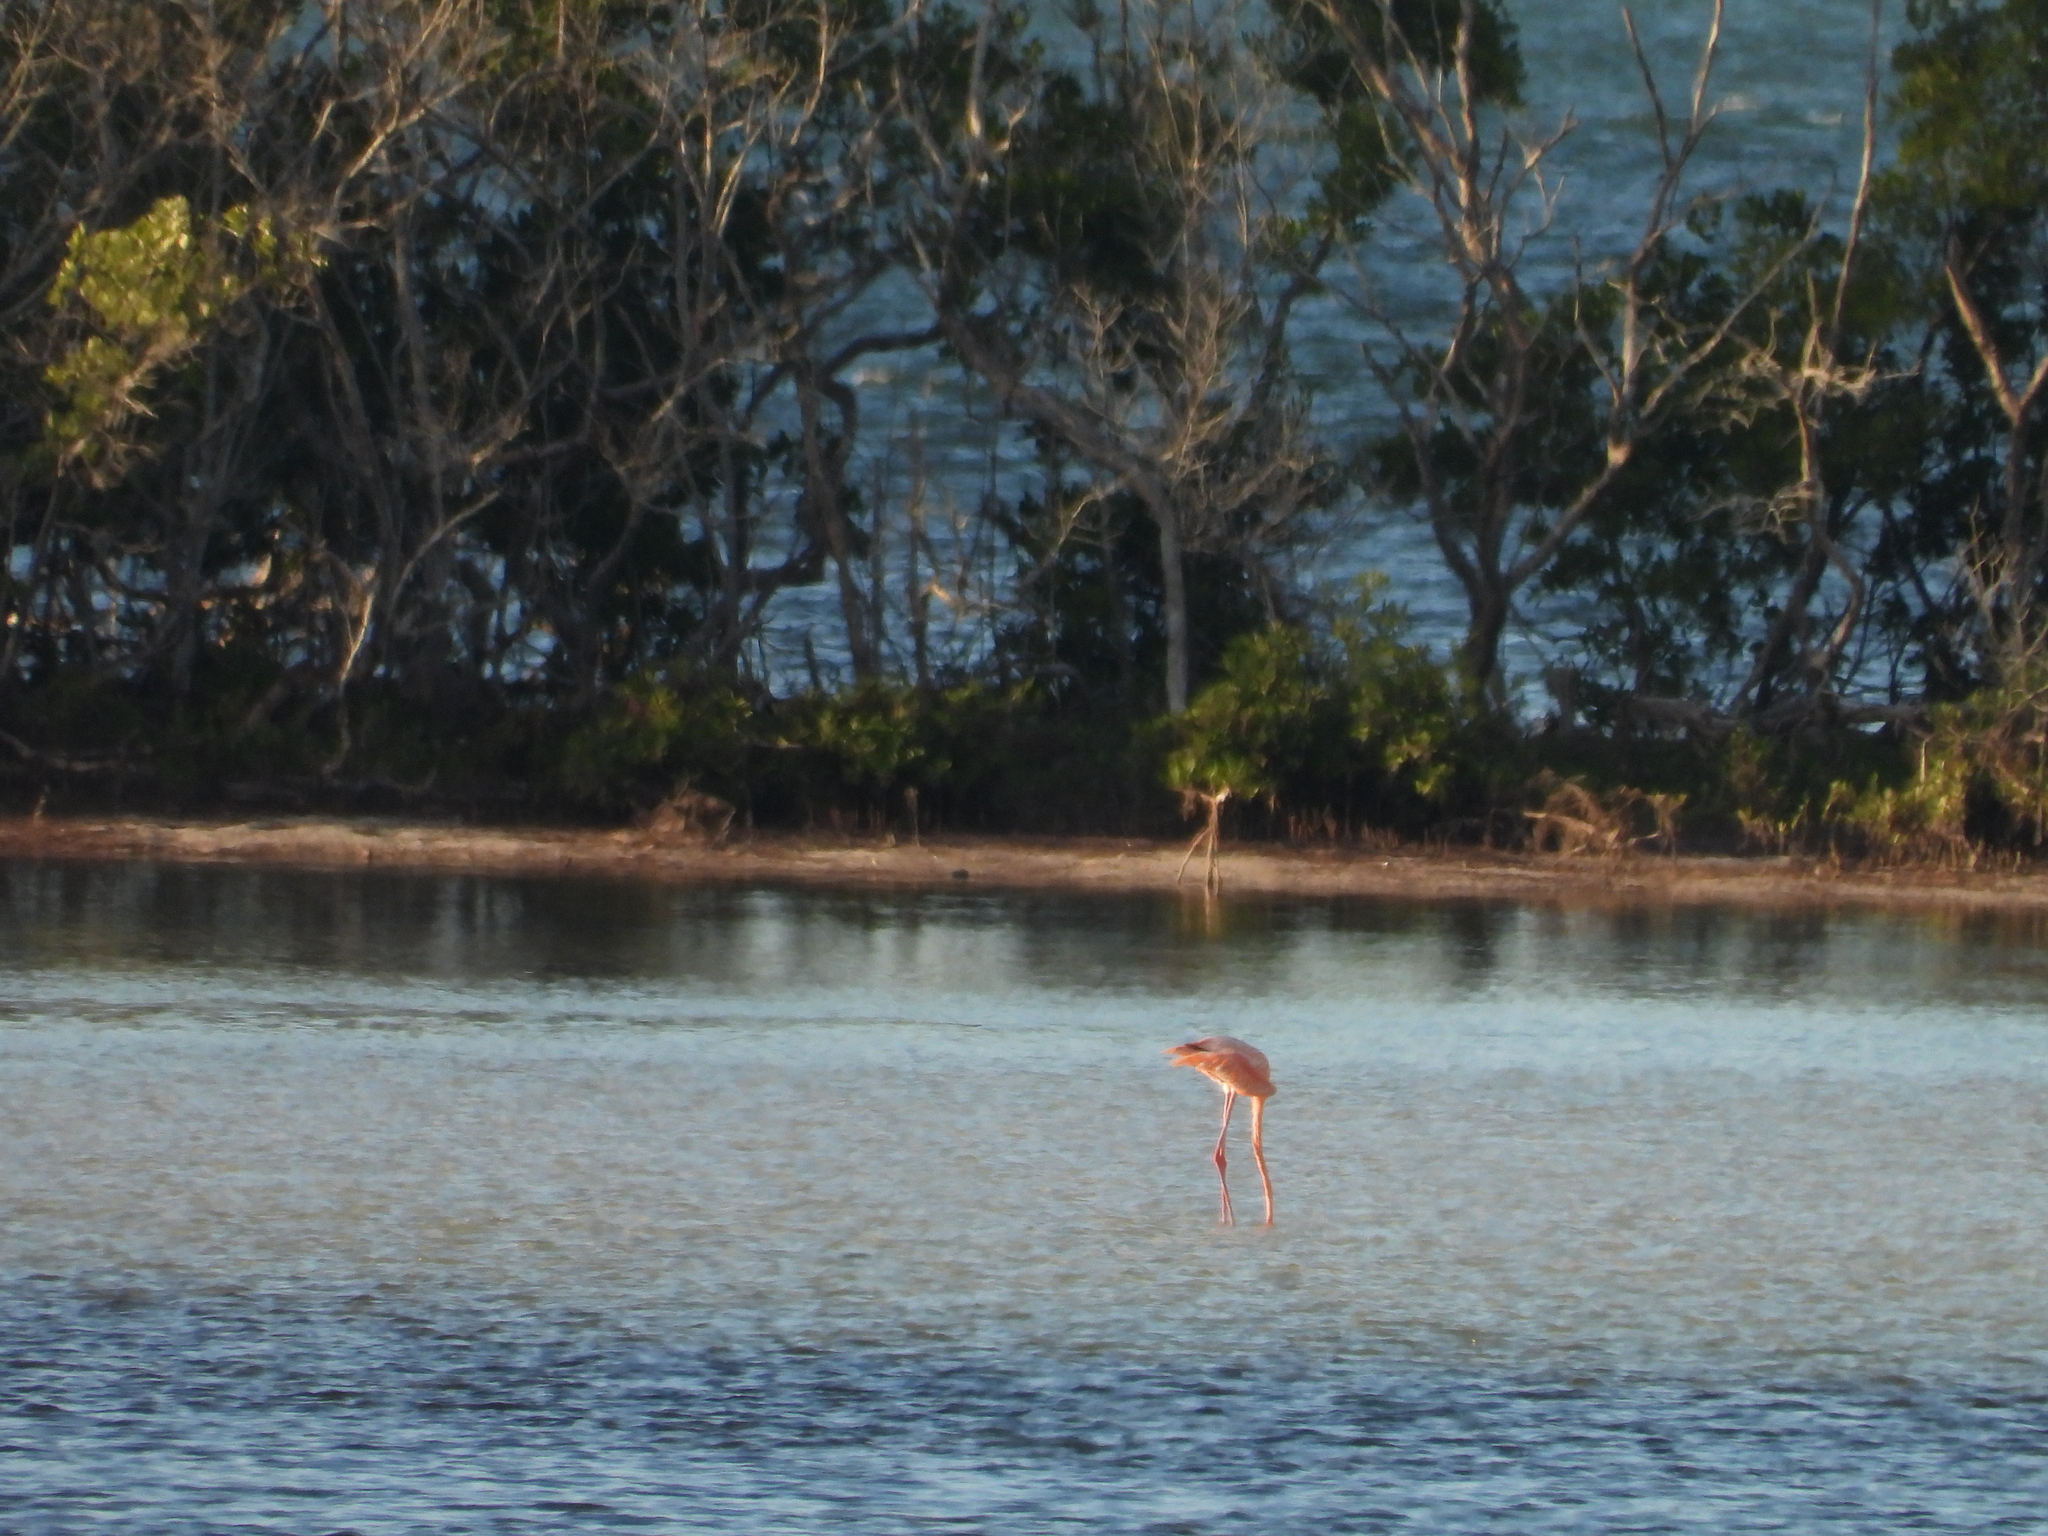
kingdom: Animalia
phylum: Chordata
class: Aves
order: Phoenicopteriformes
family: Phoenicopteridae
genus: Phoenicopterus
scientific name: Phoenicopterus ruber
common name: American flamingo
